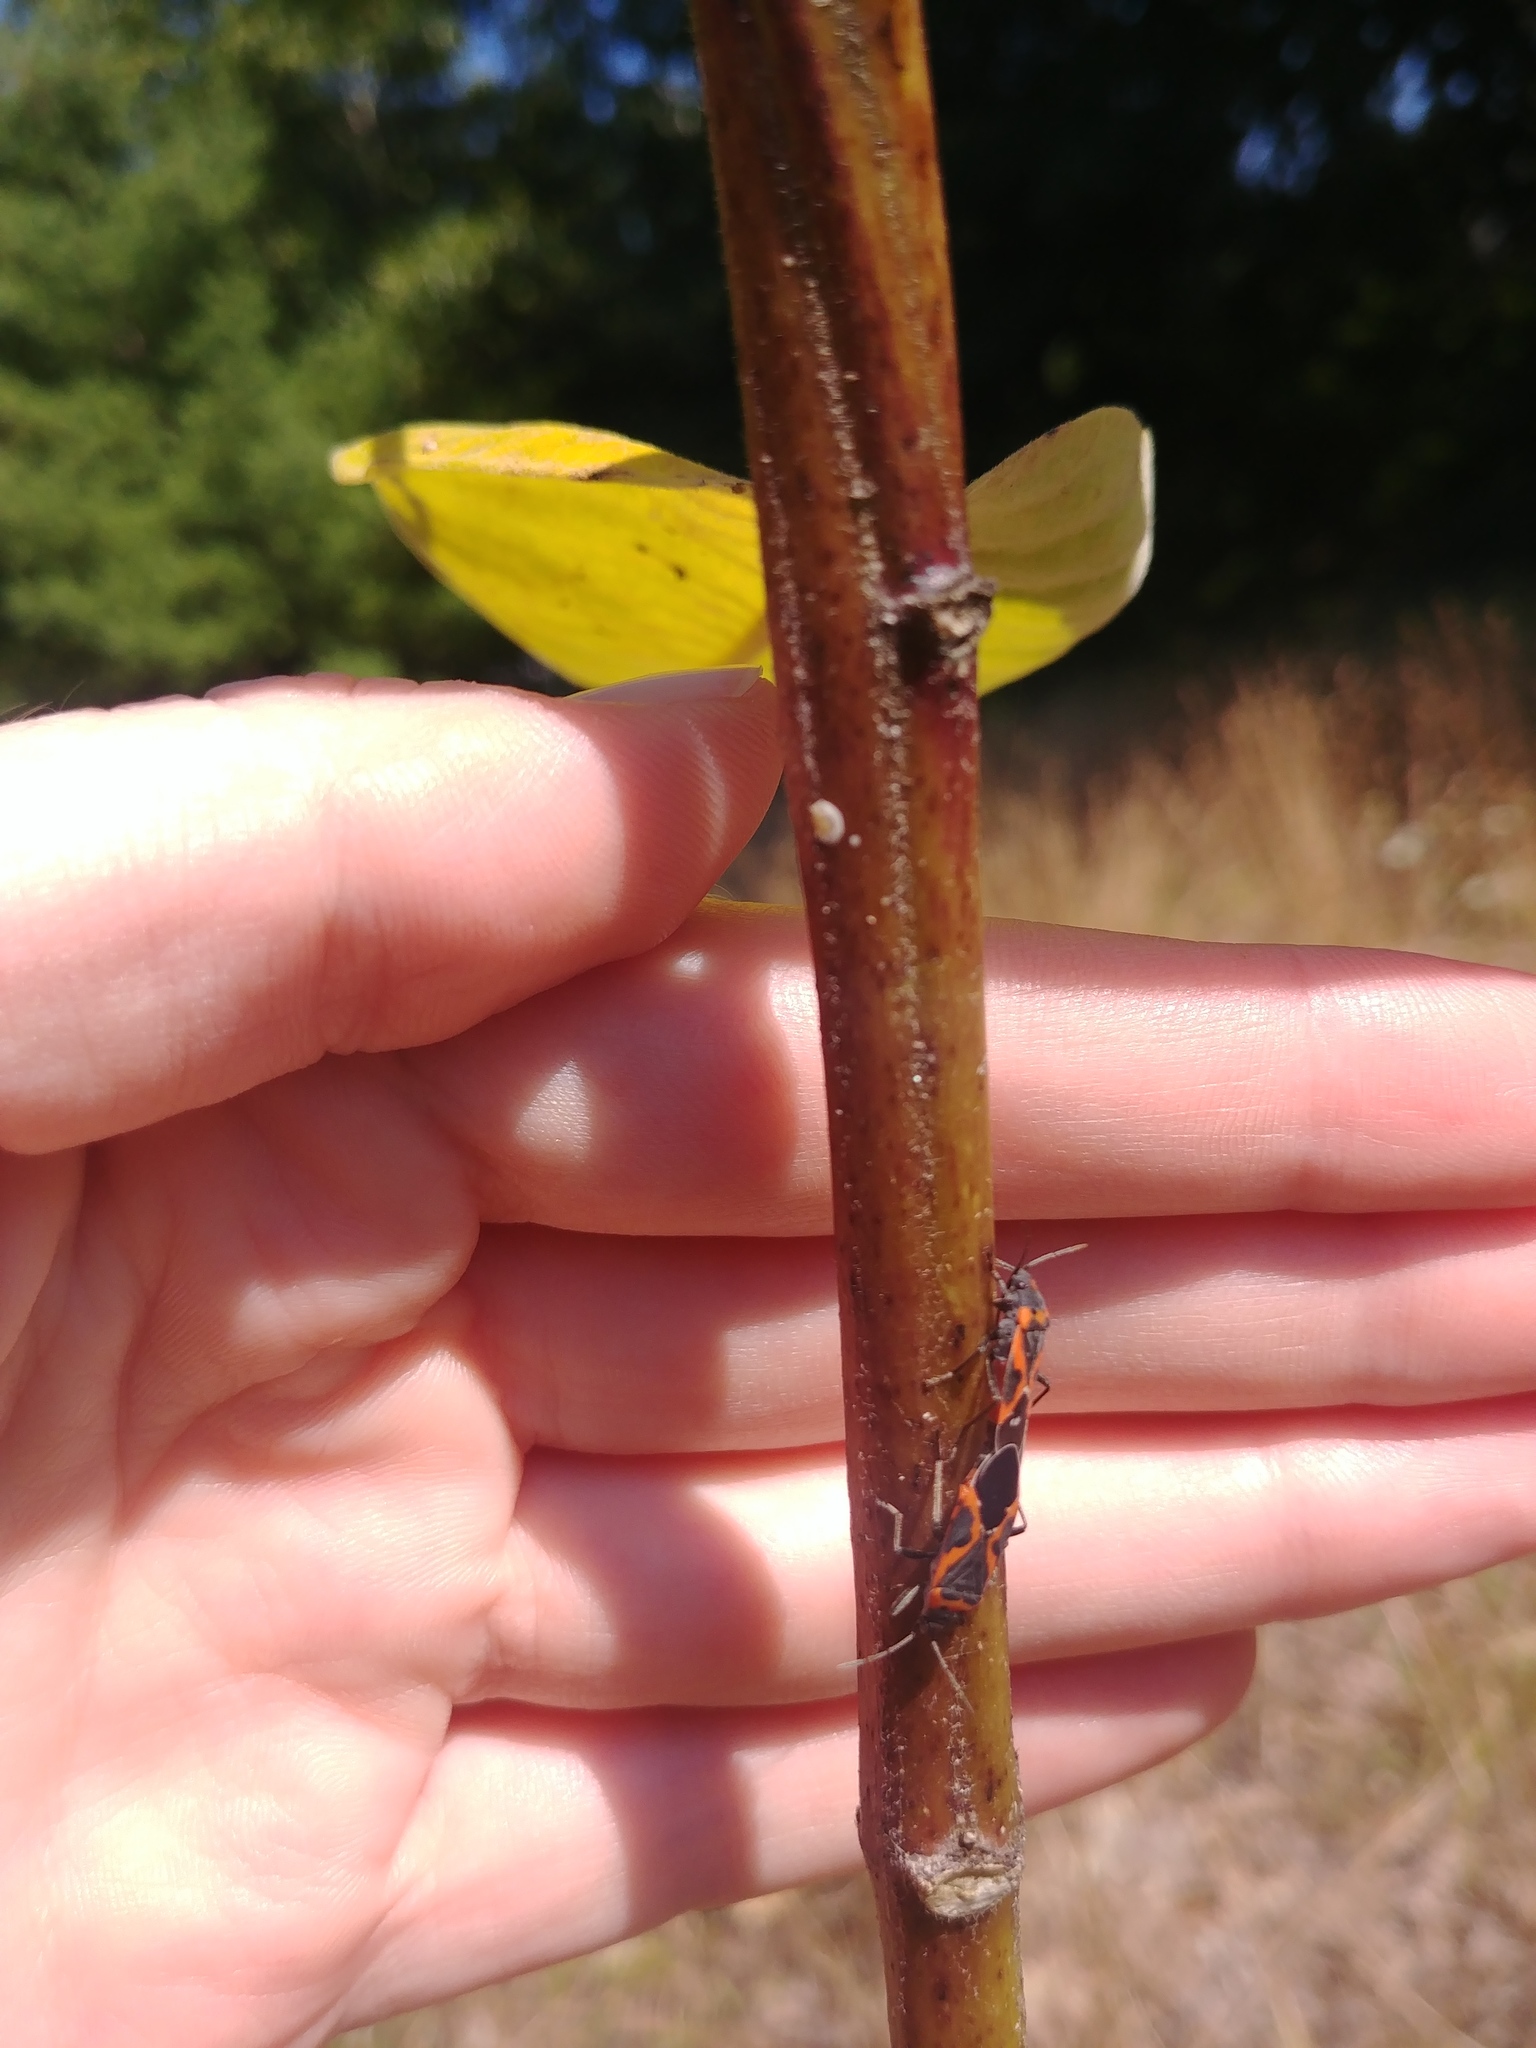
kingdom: Animalia
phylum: Arthropoda
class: Insecta
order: Hemiptera
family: Lygaeidae
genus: Lygaeus
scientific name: Lygaeus kalmii
